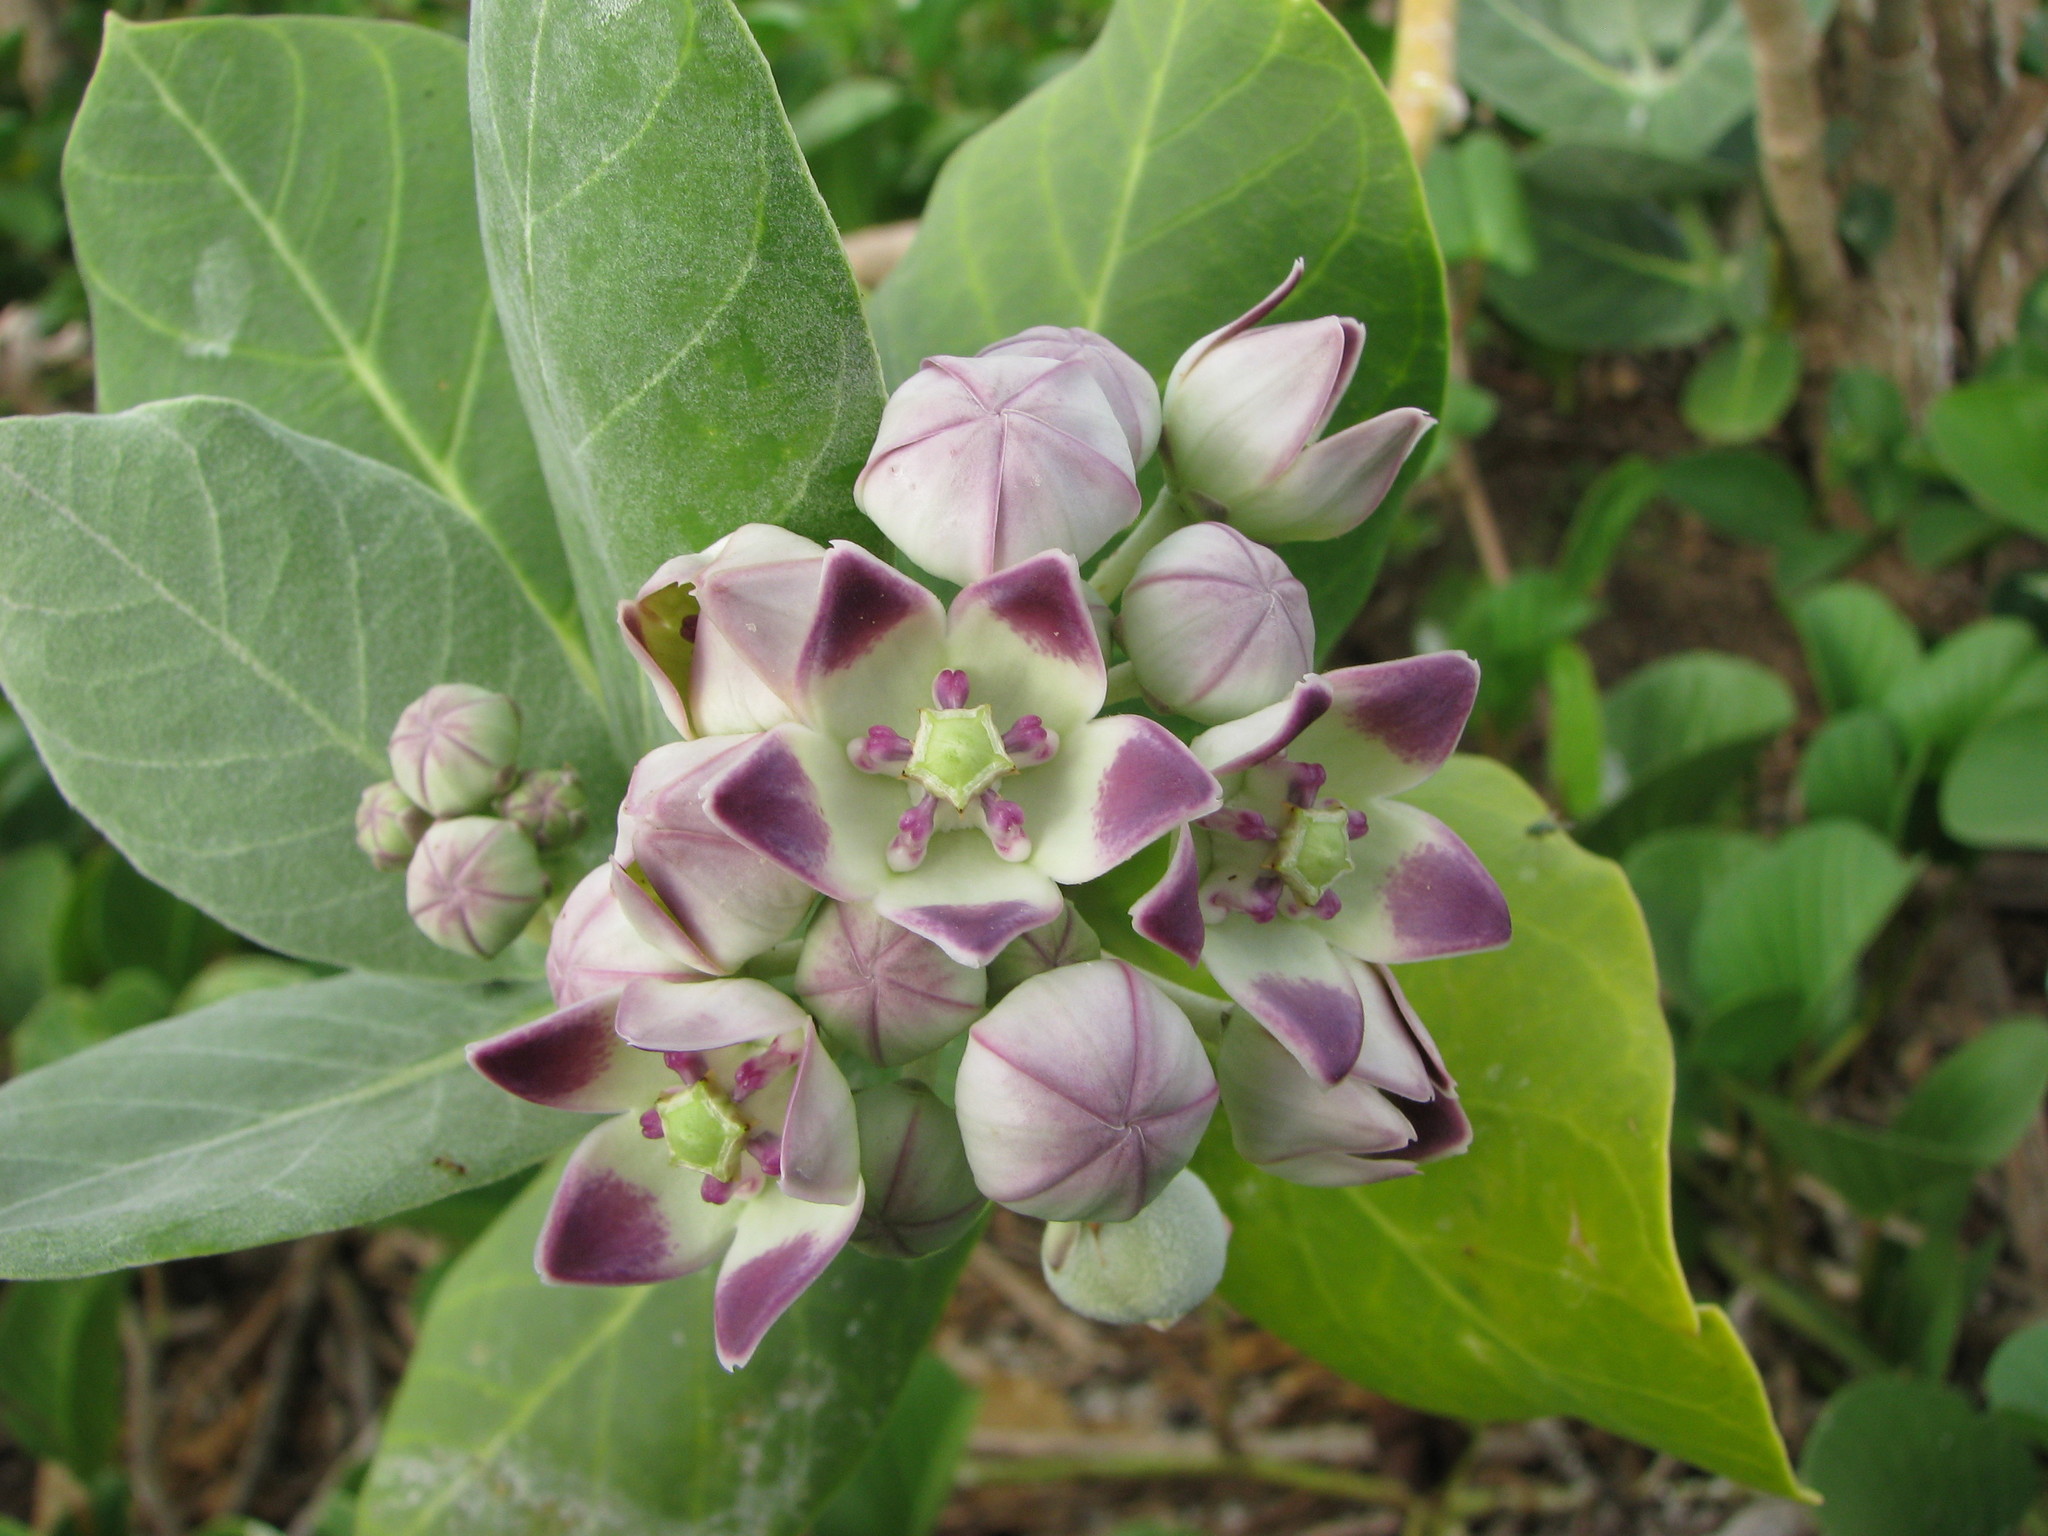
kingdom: Plantae
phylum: Tracheophyta
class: Magnoliopsida
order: Gentianales
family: Apocynaceae
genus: Calotropis
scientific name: Calotropis procera
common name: Roostertree
